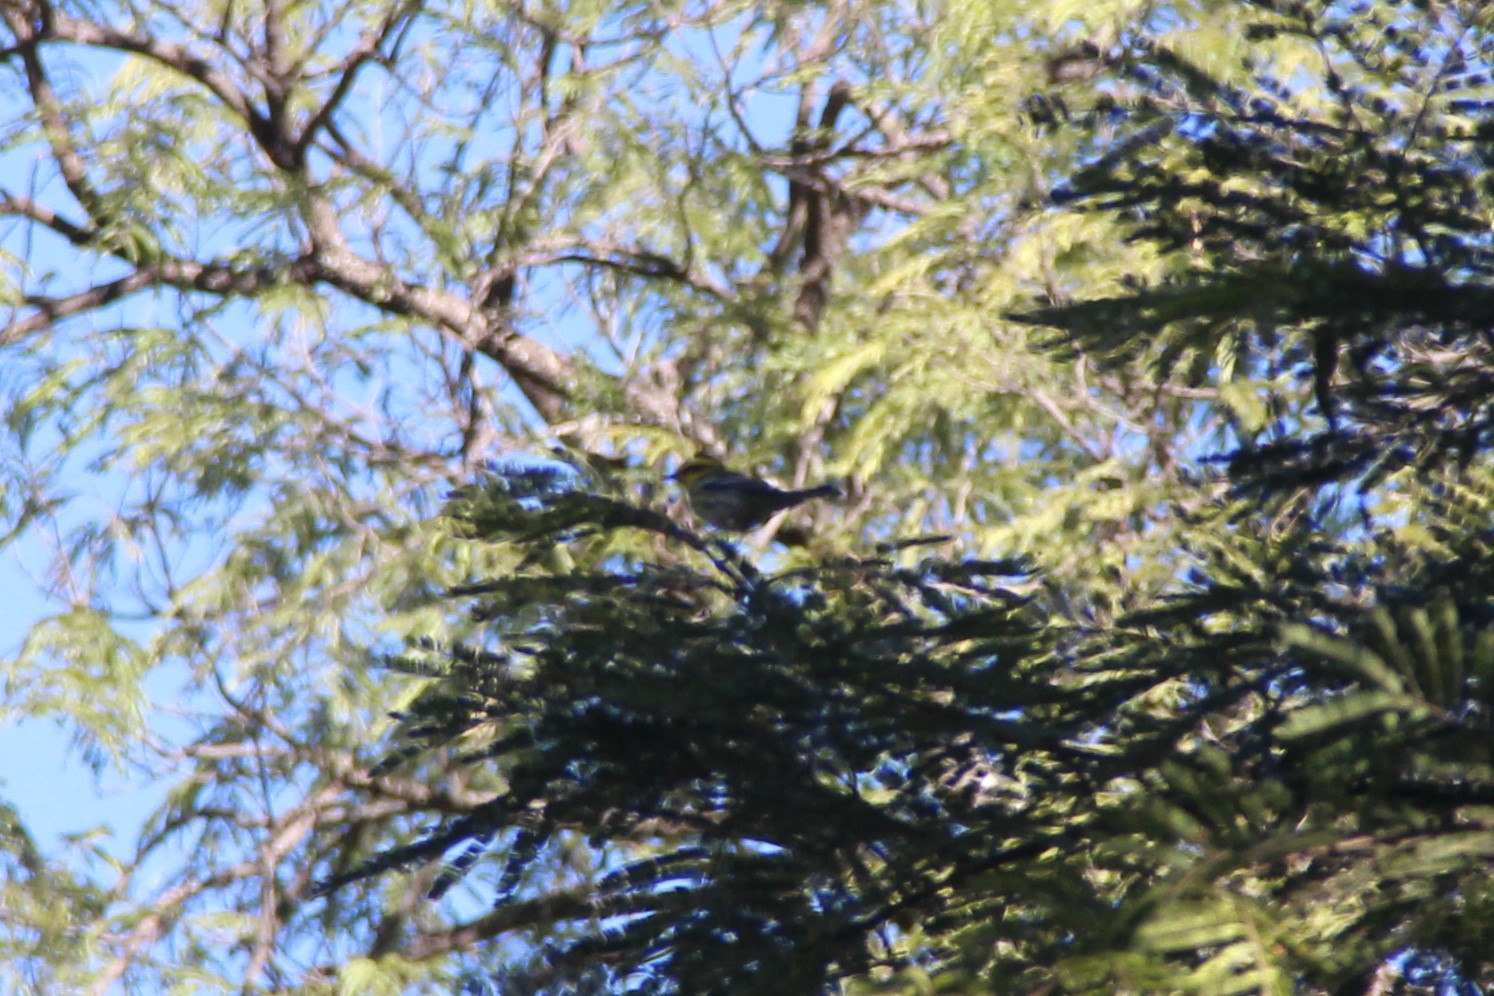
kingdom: Animalia
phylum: Chordata
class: Aves
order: Passeriformes
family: Parulidae
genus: Setophaga
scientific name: Setophaga townsendi
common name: Townsend's warbler
